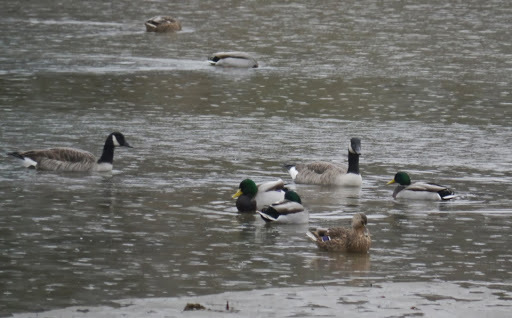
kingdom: Animalia
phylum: Chordata
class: Aves
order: Anseriformes
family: Anatidae
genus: Branta
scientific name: Branta canadensis
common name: Canada goose
